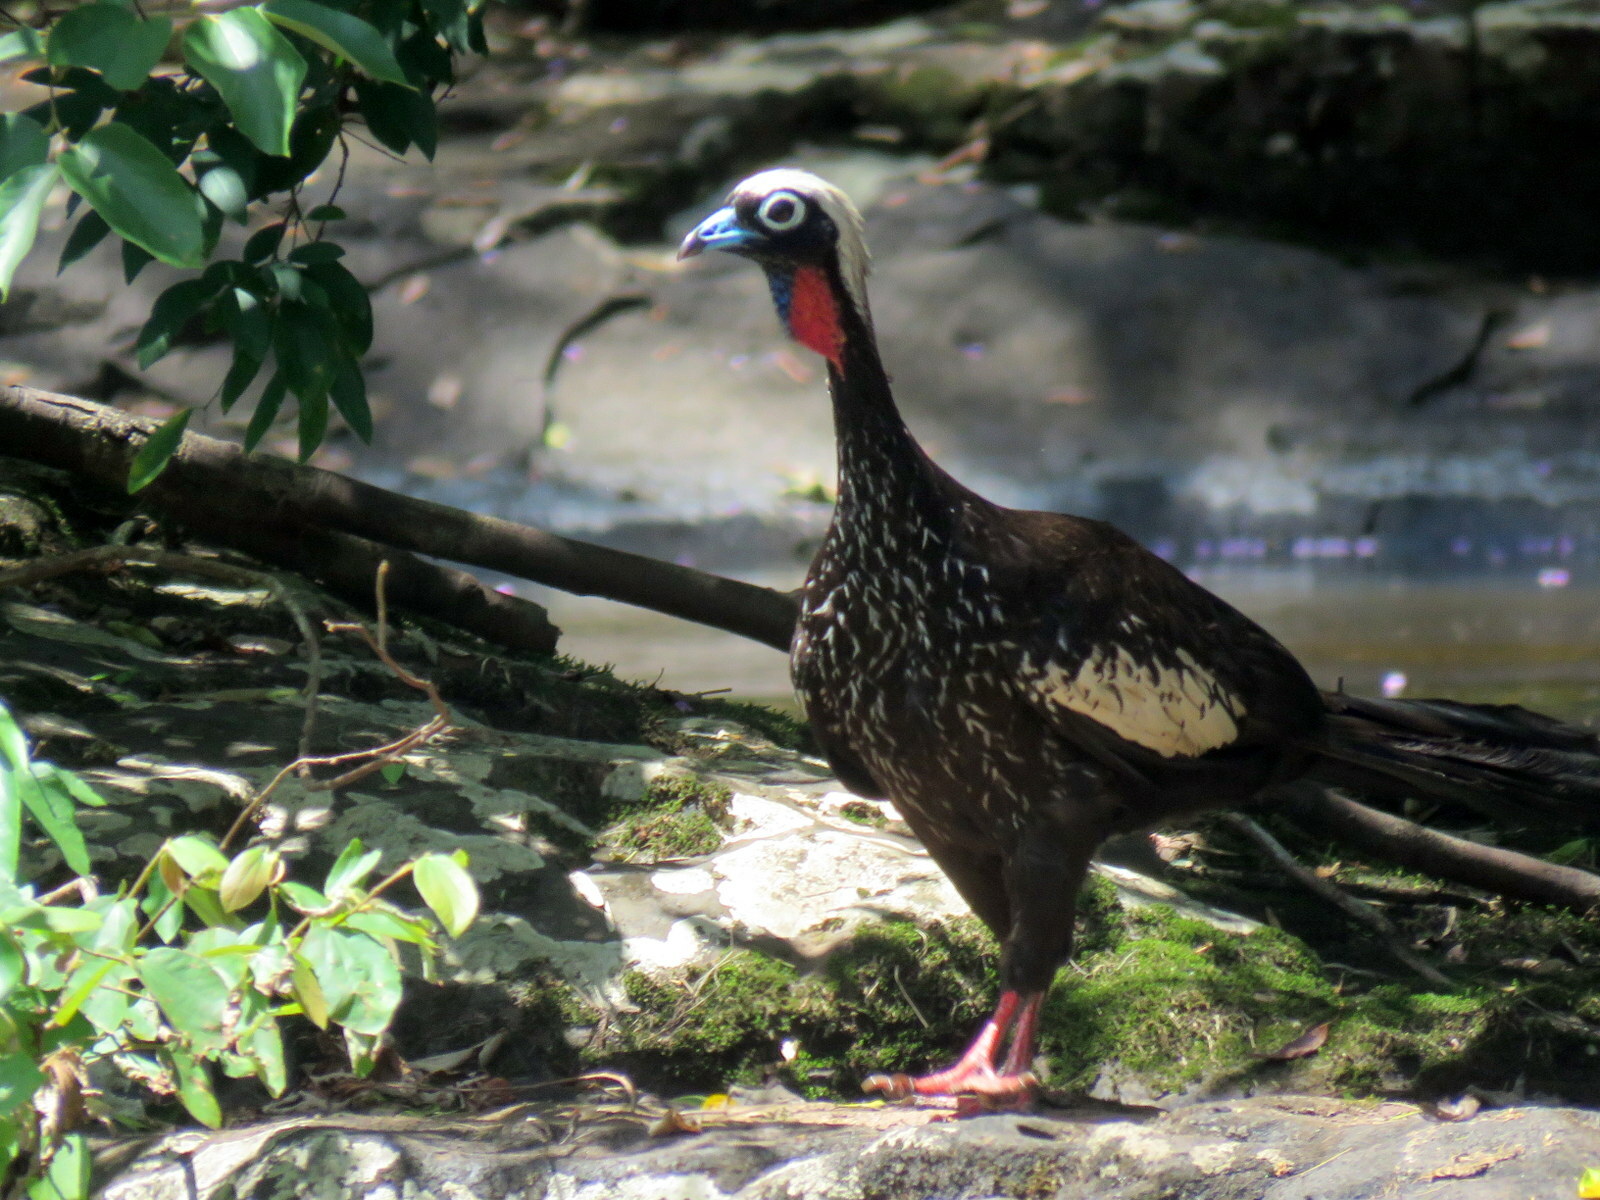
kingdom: Animalia
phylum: Chordata
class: Aves
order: Galliformes
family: Cracidae
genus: Pipile
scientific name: Pipile jacutinga
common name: Black-fronted piping-guan
